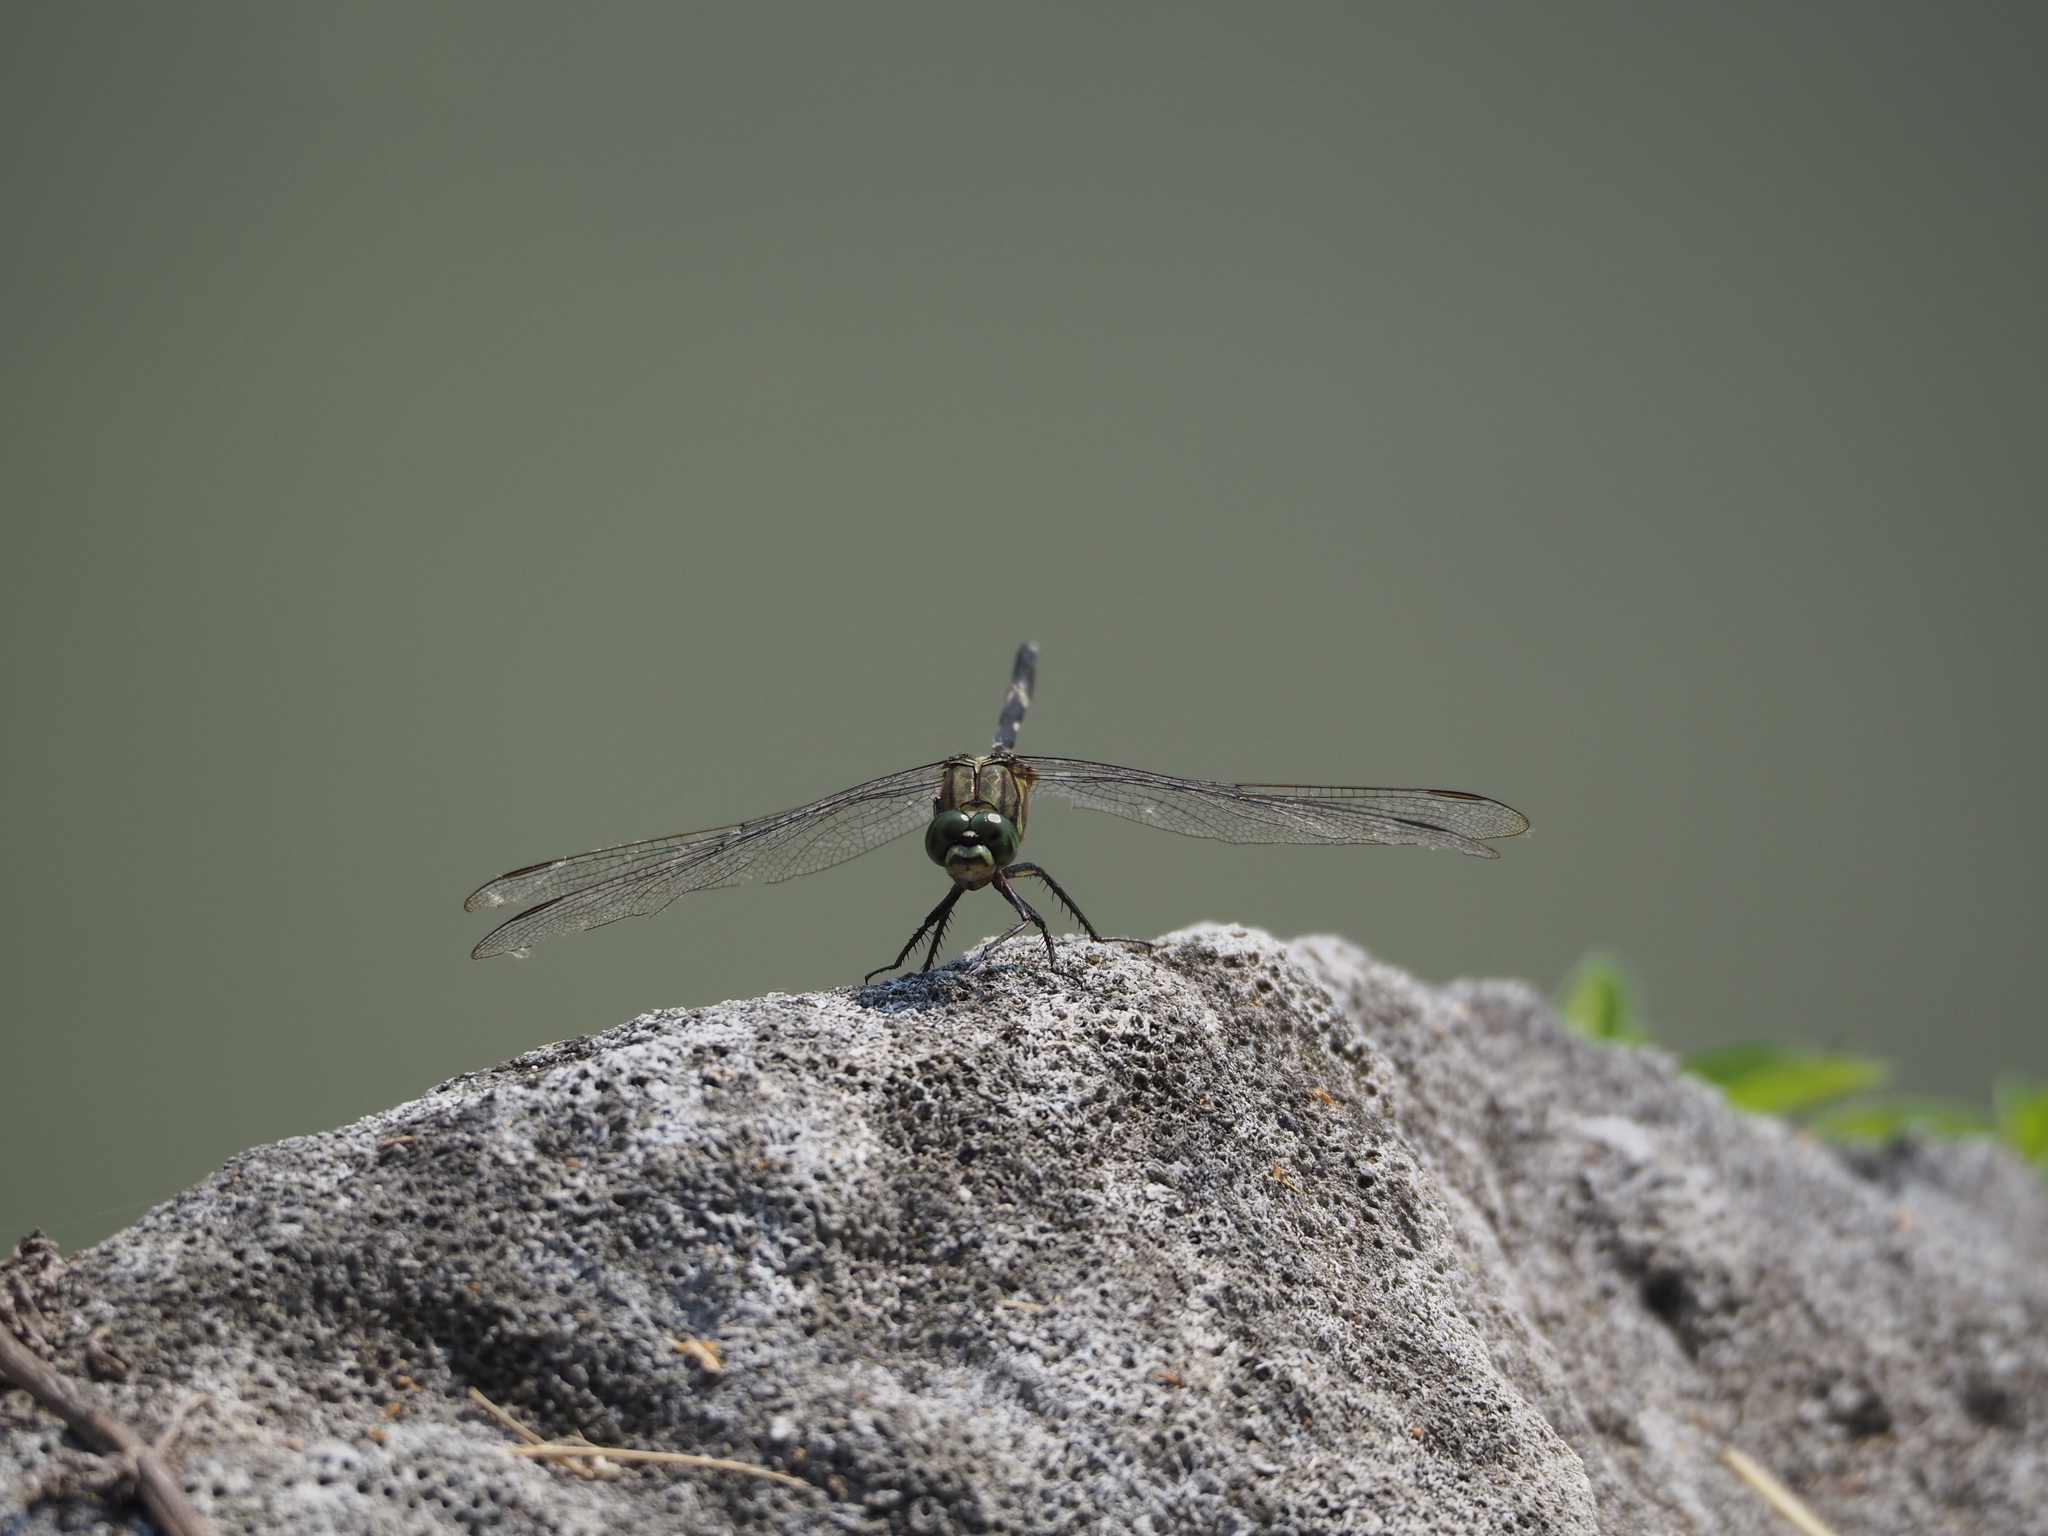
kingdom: Animalia
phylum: Arthropoda
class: Insecta
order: Odonata
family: Libellulidae
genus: Orthetrum
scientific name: Orthetrum sabina
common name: Slender skimmer
